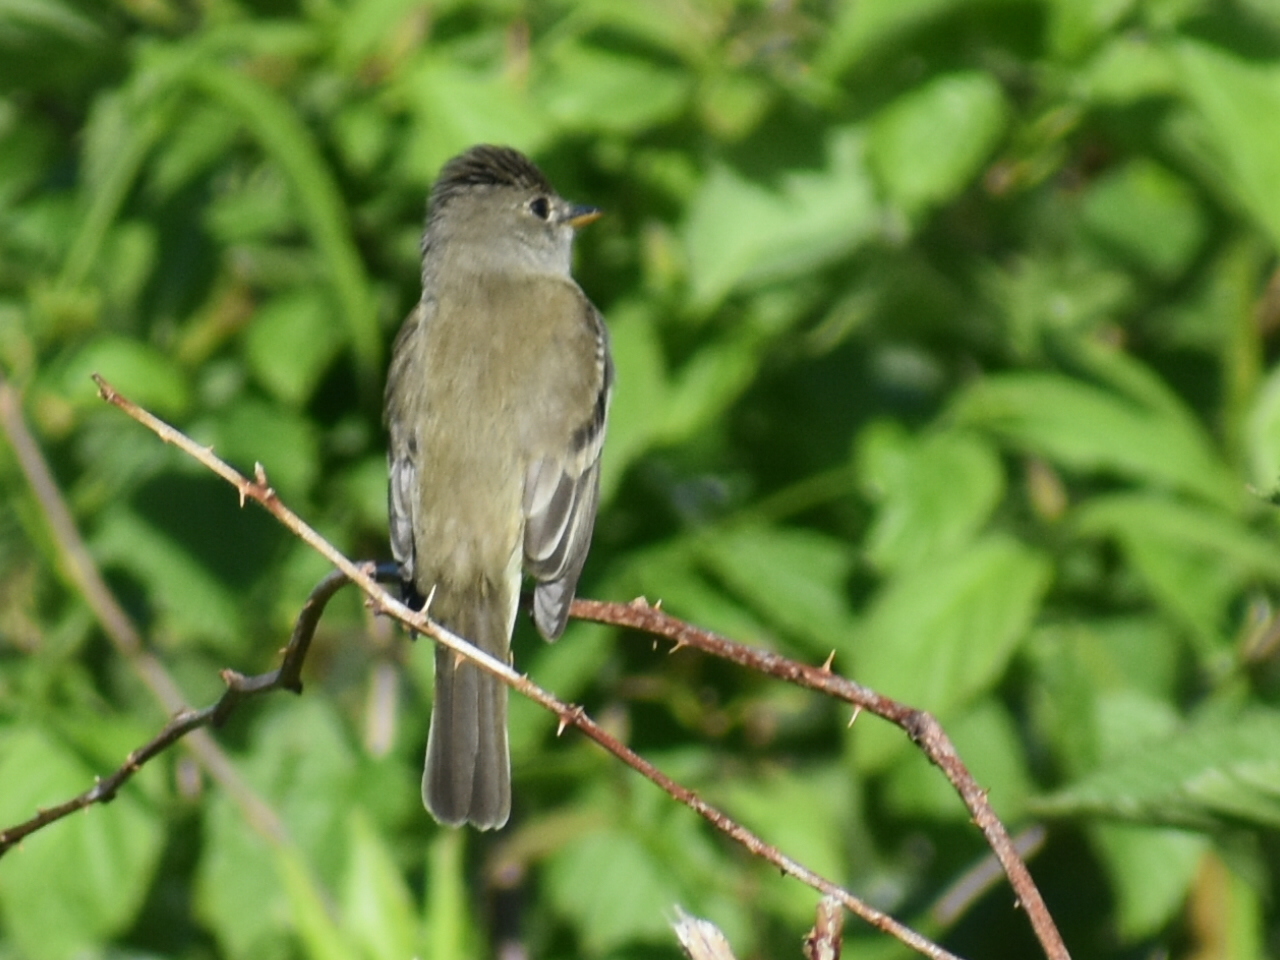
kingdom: Animalia
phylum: Chordata
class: Aves
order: Passeriformes
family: Tyrannidae
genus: Empidonax
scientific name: Empidonax traillii
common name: Willow flycatcher
